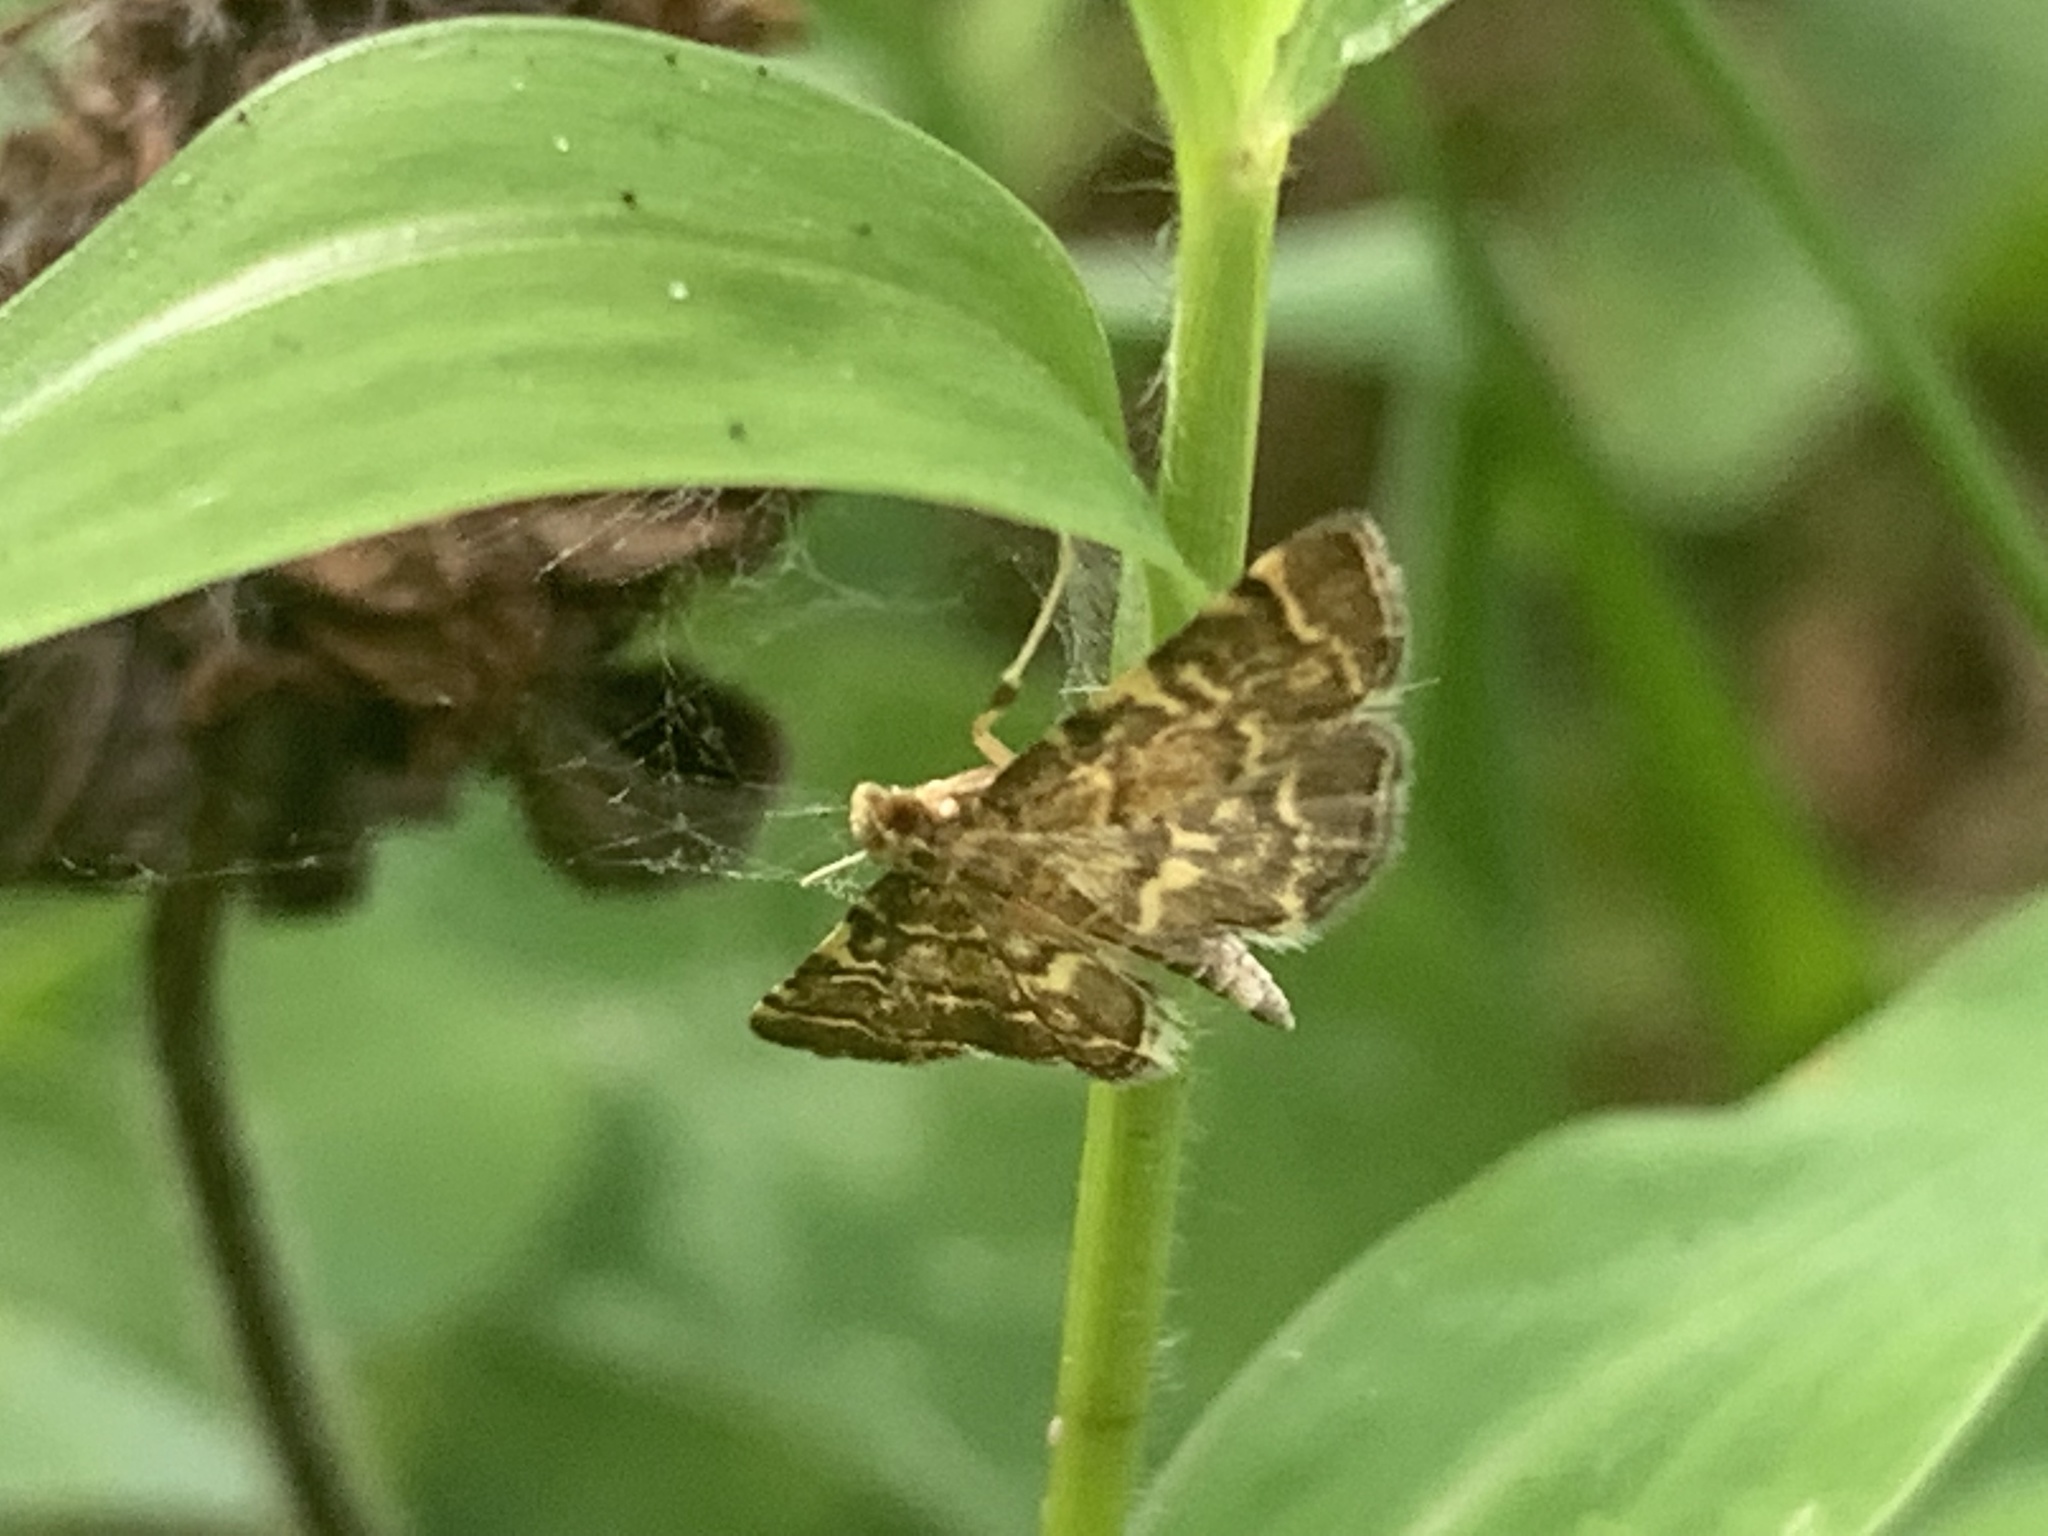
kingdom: Animalia
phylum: Arthropoda
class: Insecta
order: Lepidoptera
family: Crambidae
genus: Anageshna
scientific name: Anageshna primordialis
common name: Yellow-spotted webworm moth
